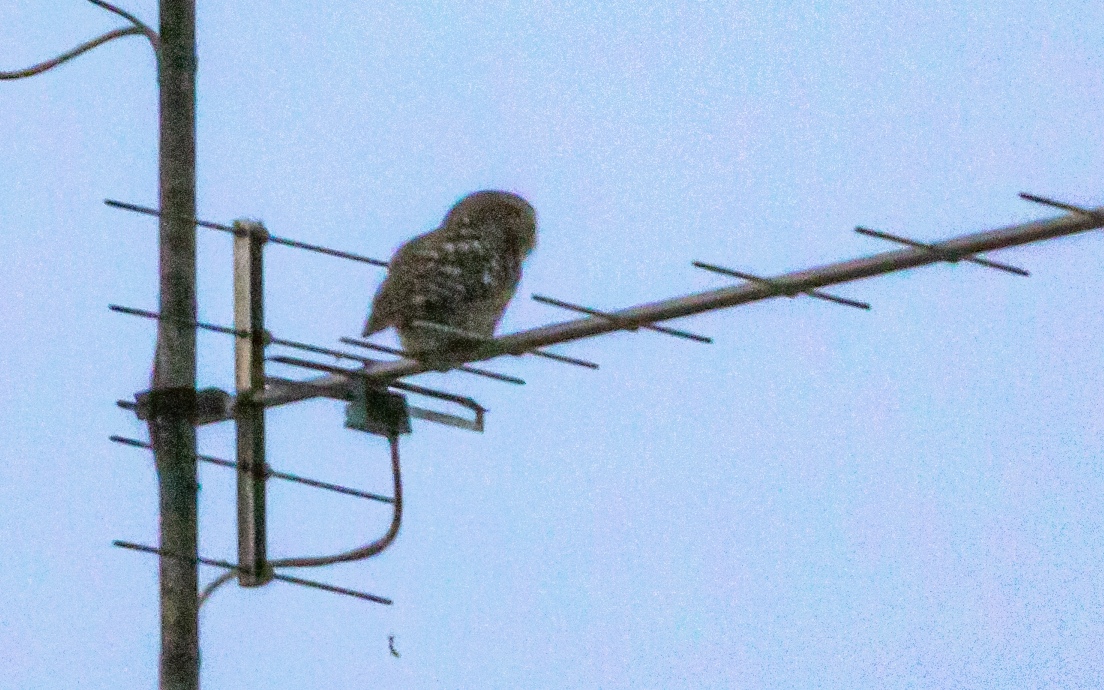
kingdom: Animalia
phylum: Chordata
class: Aves
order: Strigiformes
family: Strigidae
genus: Athene
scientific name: Athene noctua
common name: Little owl
